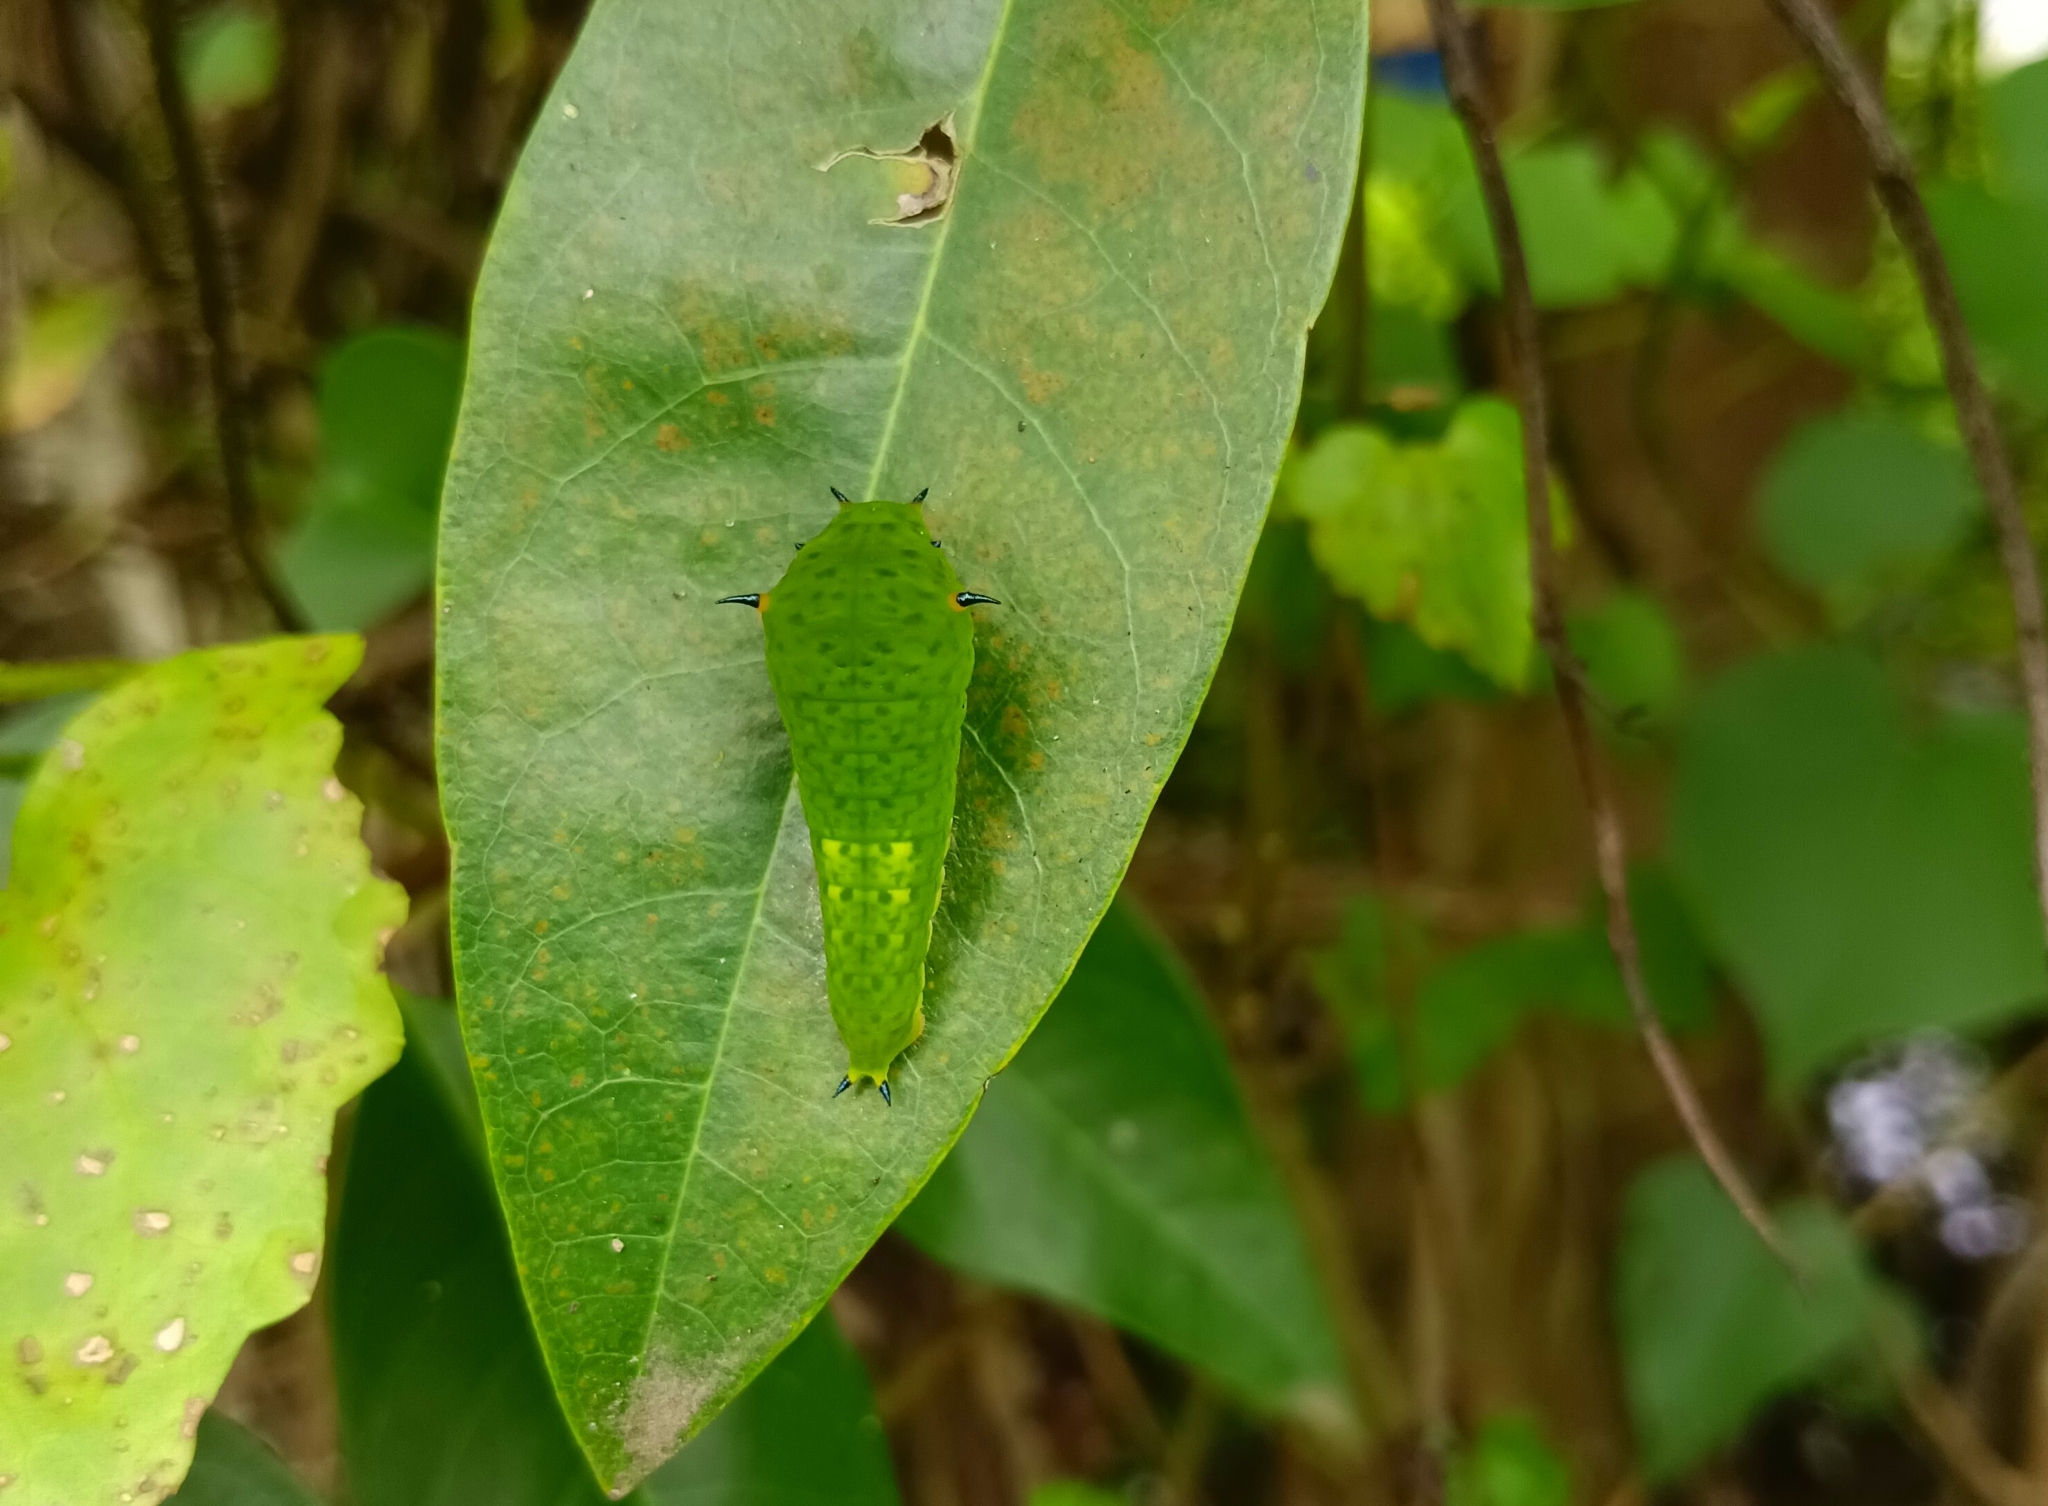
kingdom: Animalia
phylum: Arthropoda
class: Insecta
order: Lepidoptera
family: Papilionidae
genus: Graphium
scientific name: Graphium agamemnon
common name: Tailed jay
